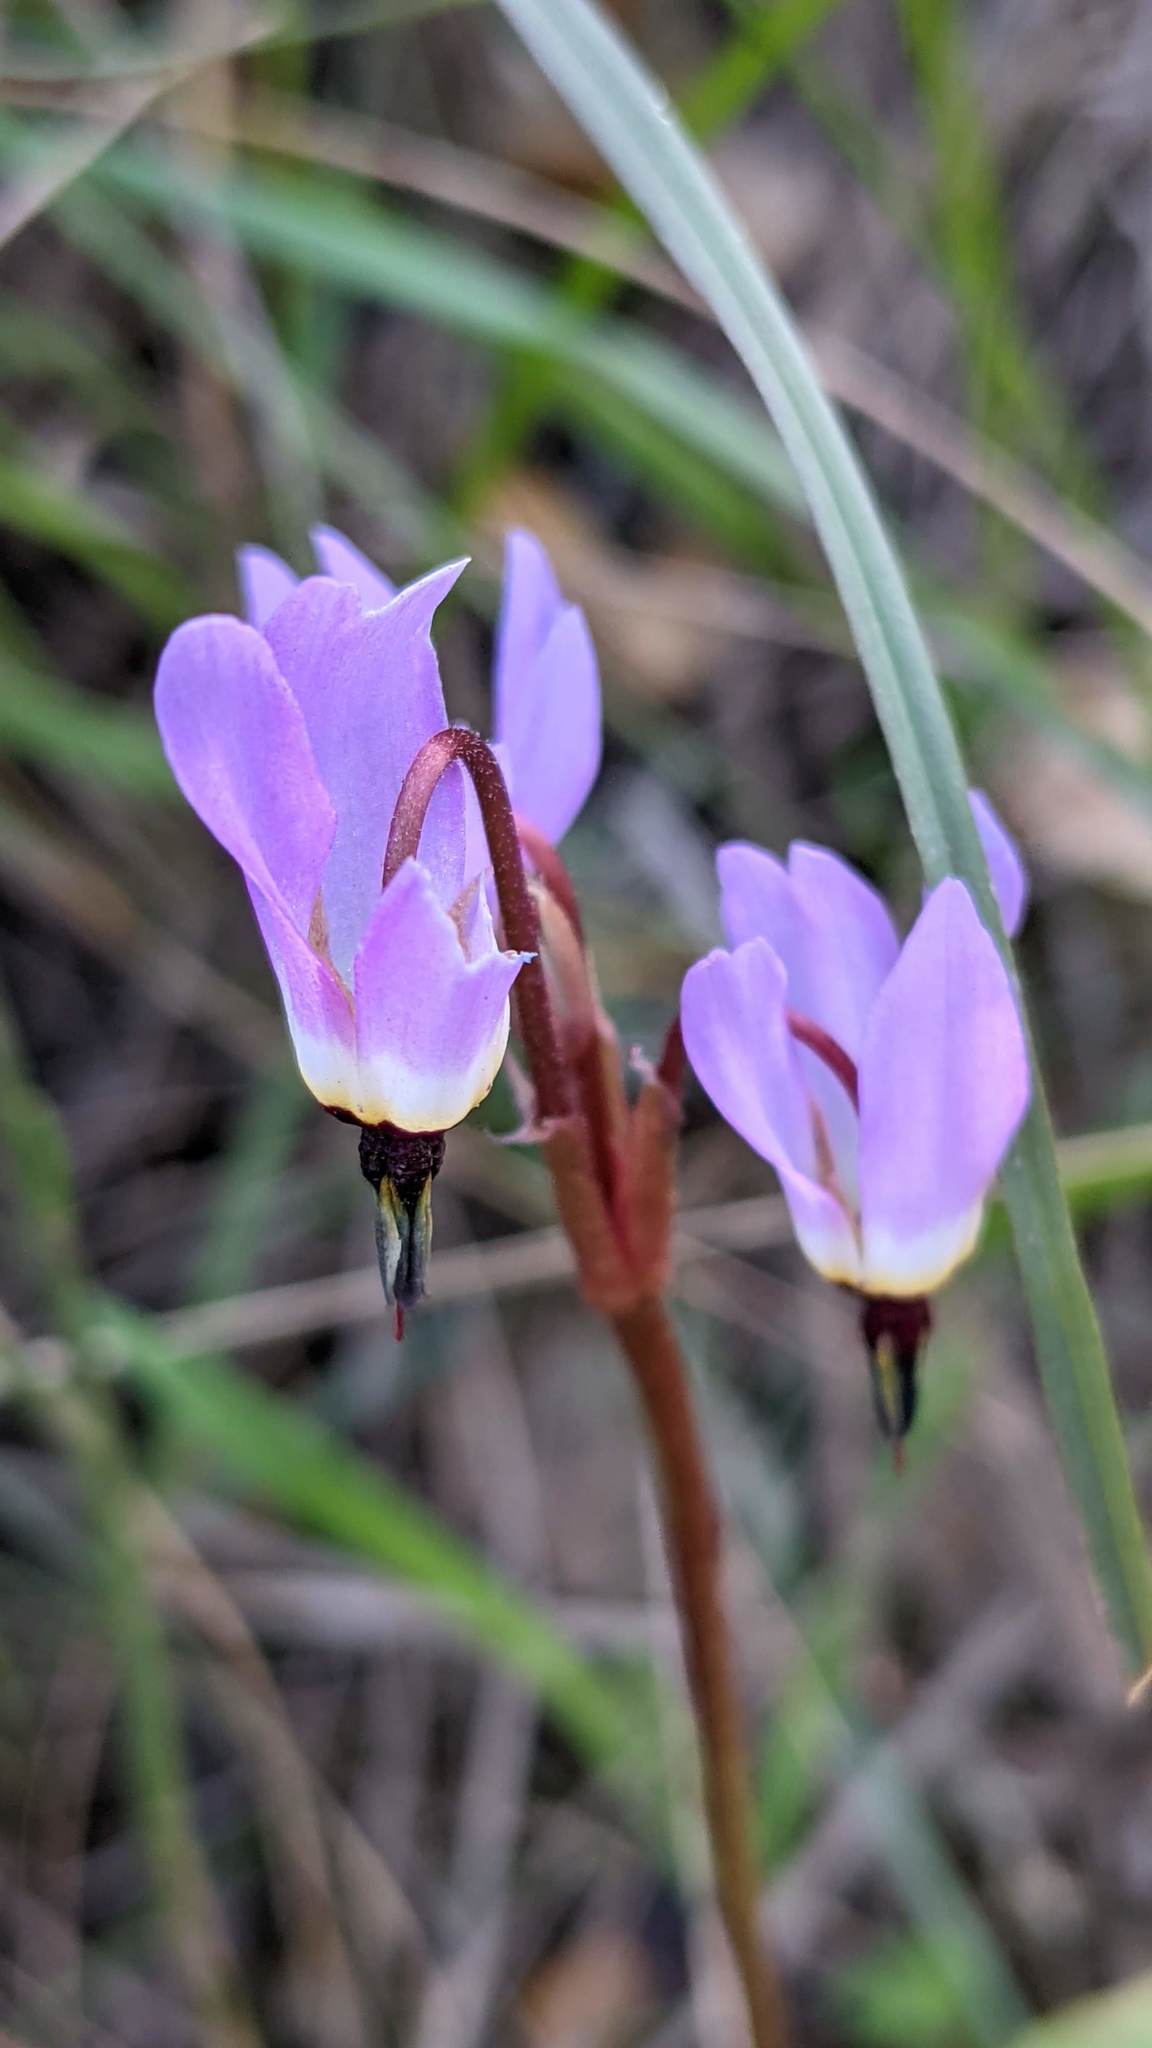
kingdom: Plantae
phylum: Tracheophyta
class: Magnoliopsida
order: Ericales
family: Primulaceae
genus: Dodecatheon
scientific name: Dodecatheon hendersonii
